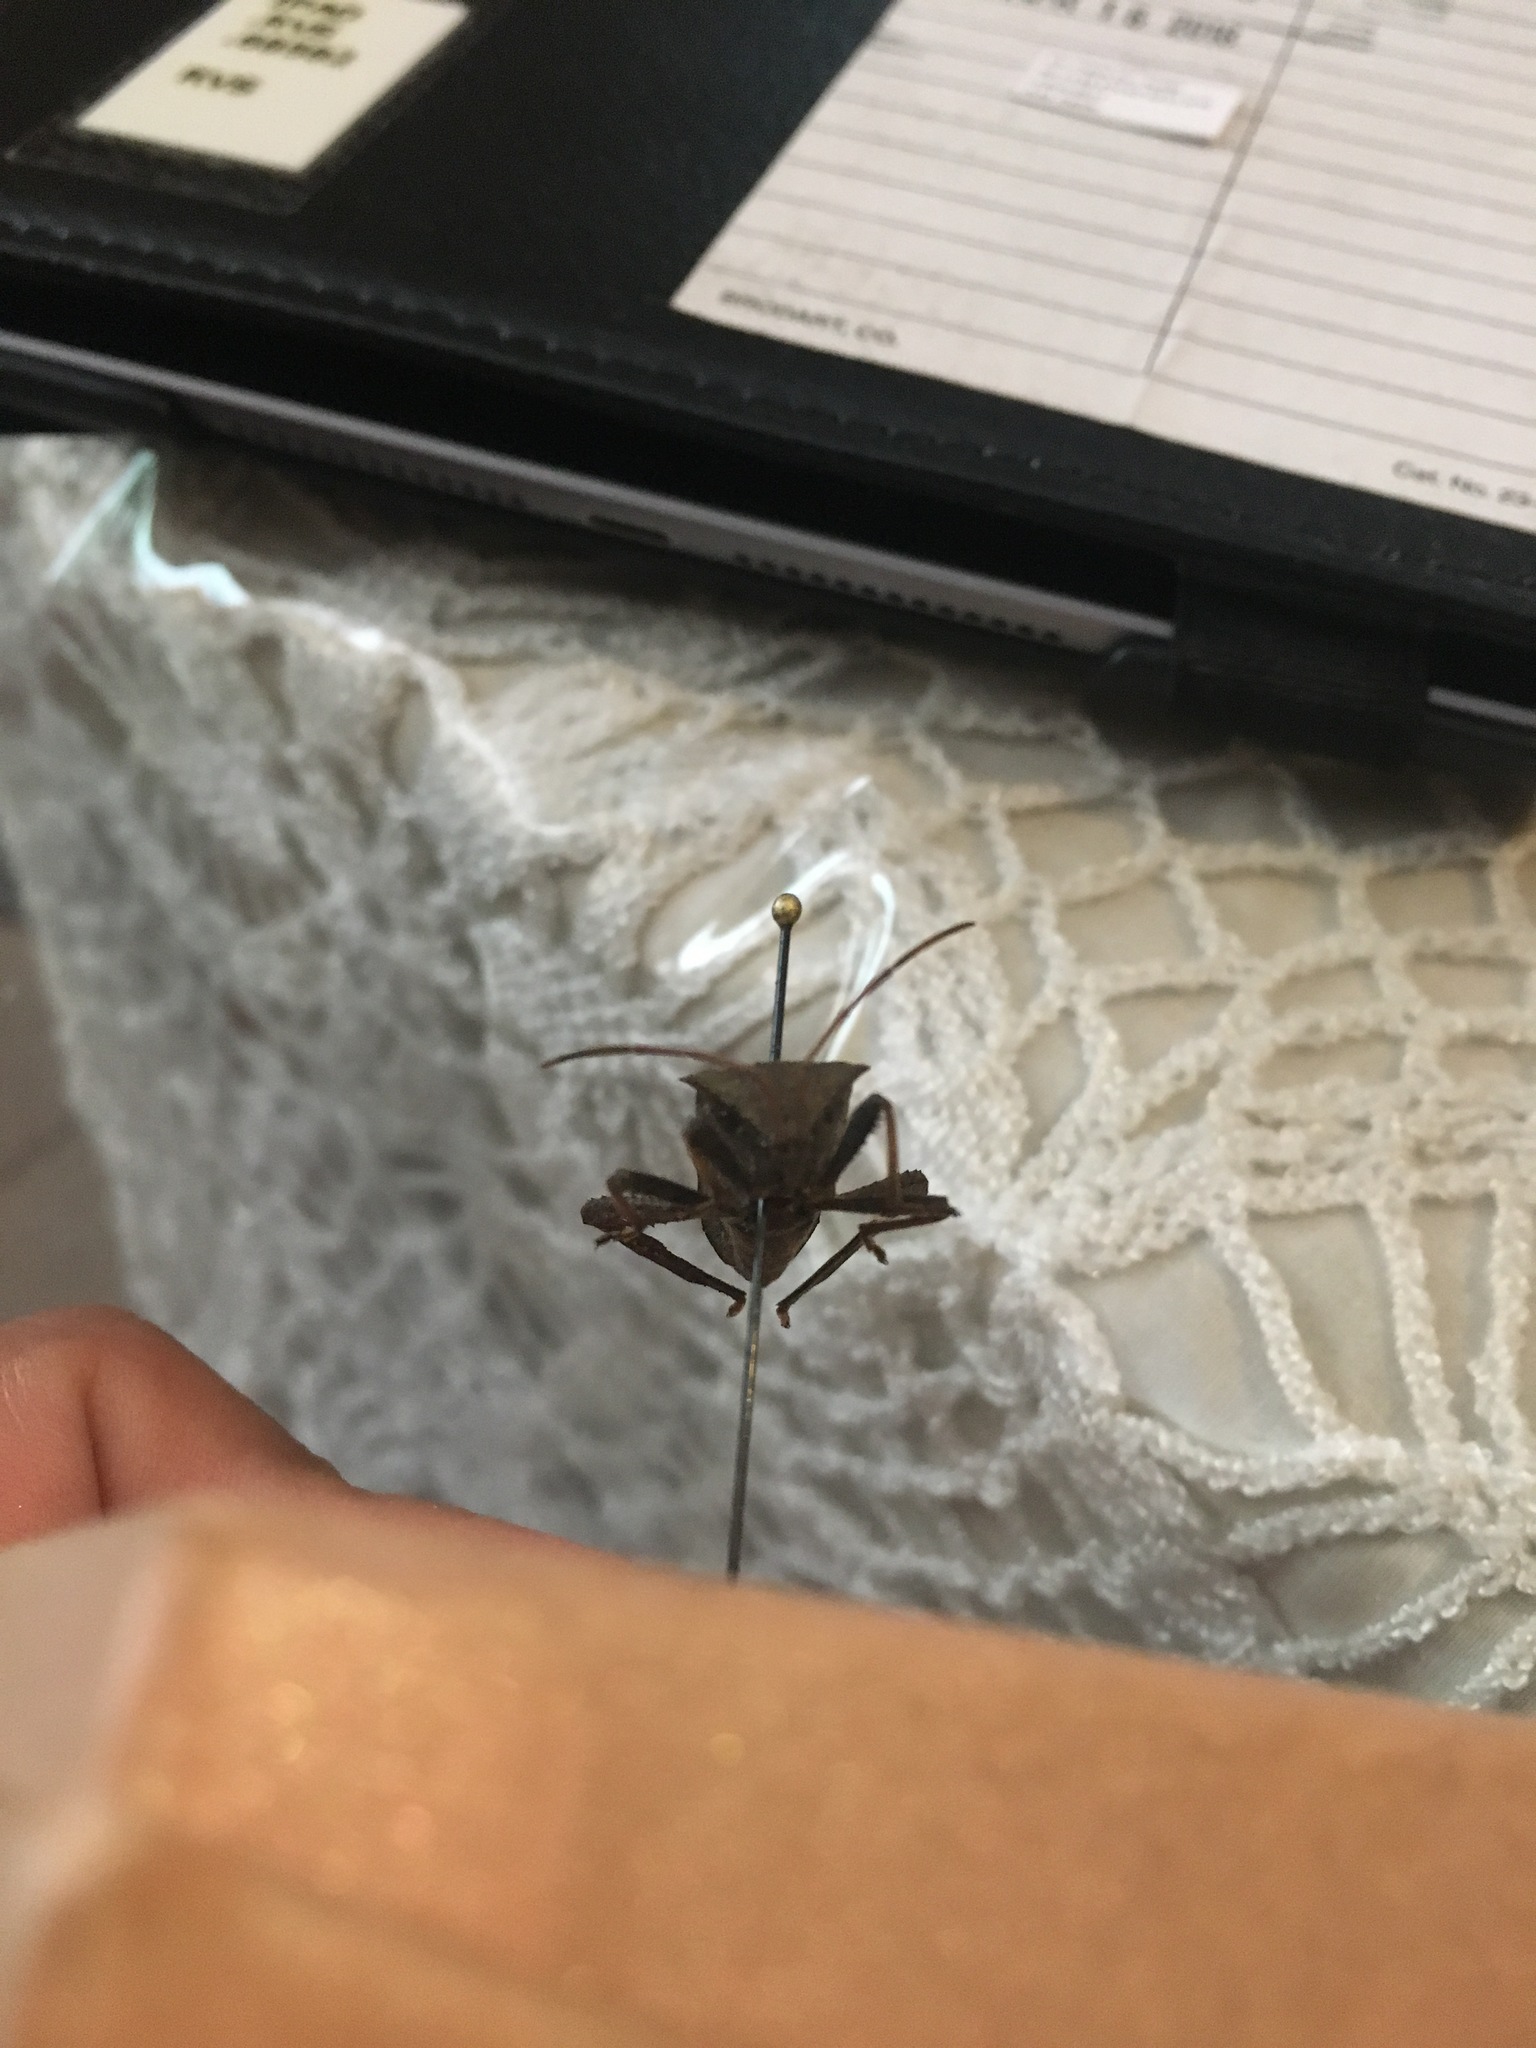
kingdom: Animalia
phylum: Arthropoda
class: Insecta
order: Hemiptera
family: Coreidae
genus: Acanthocephala
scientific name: Acanthocephala femorata
